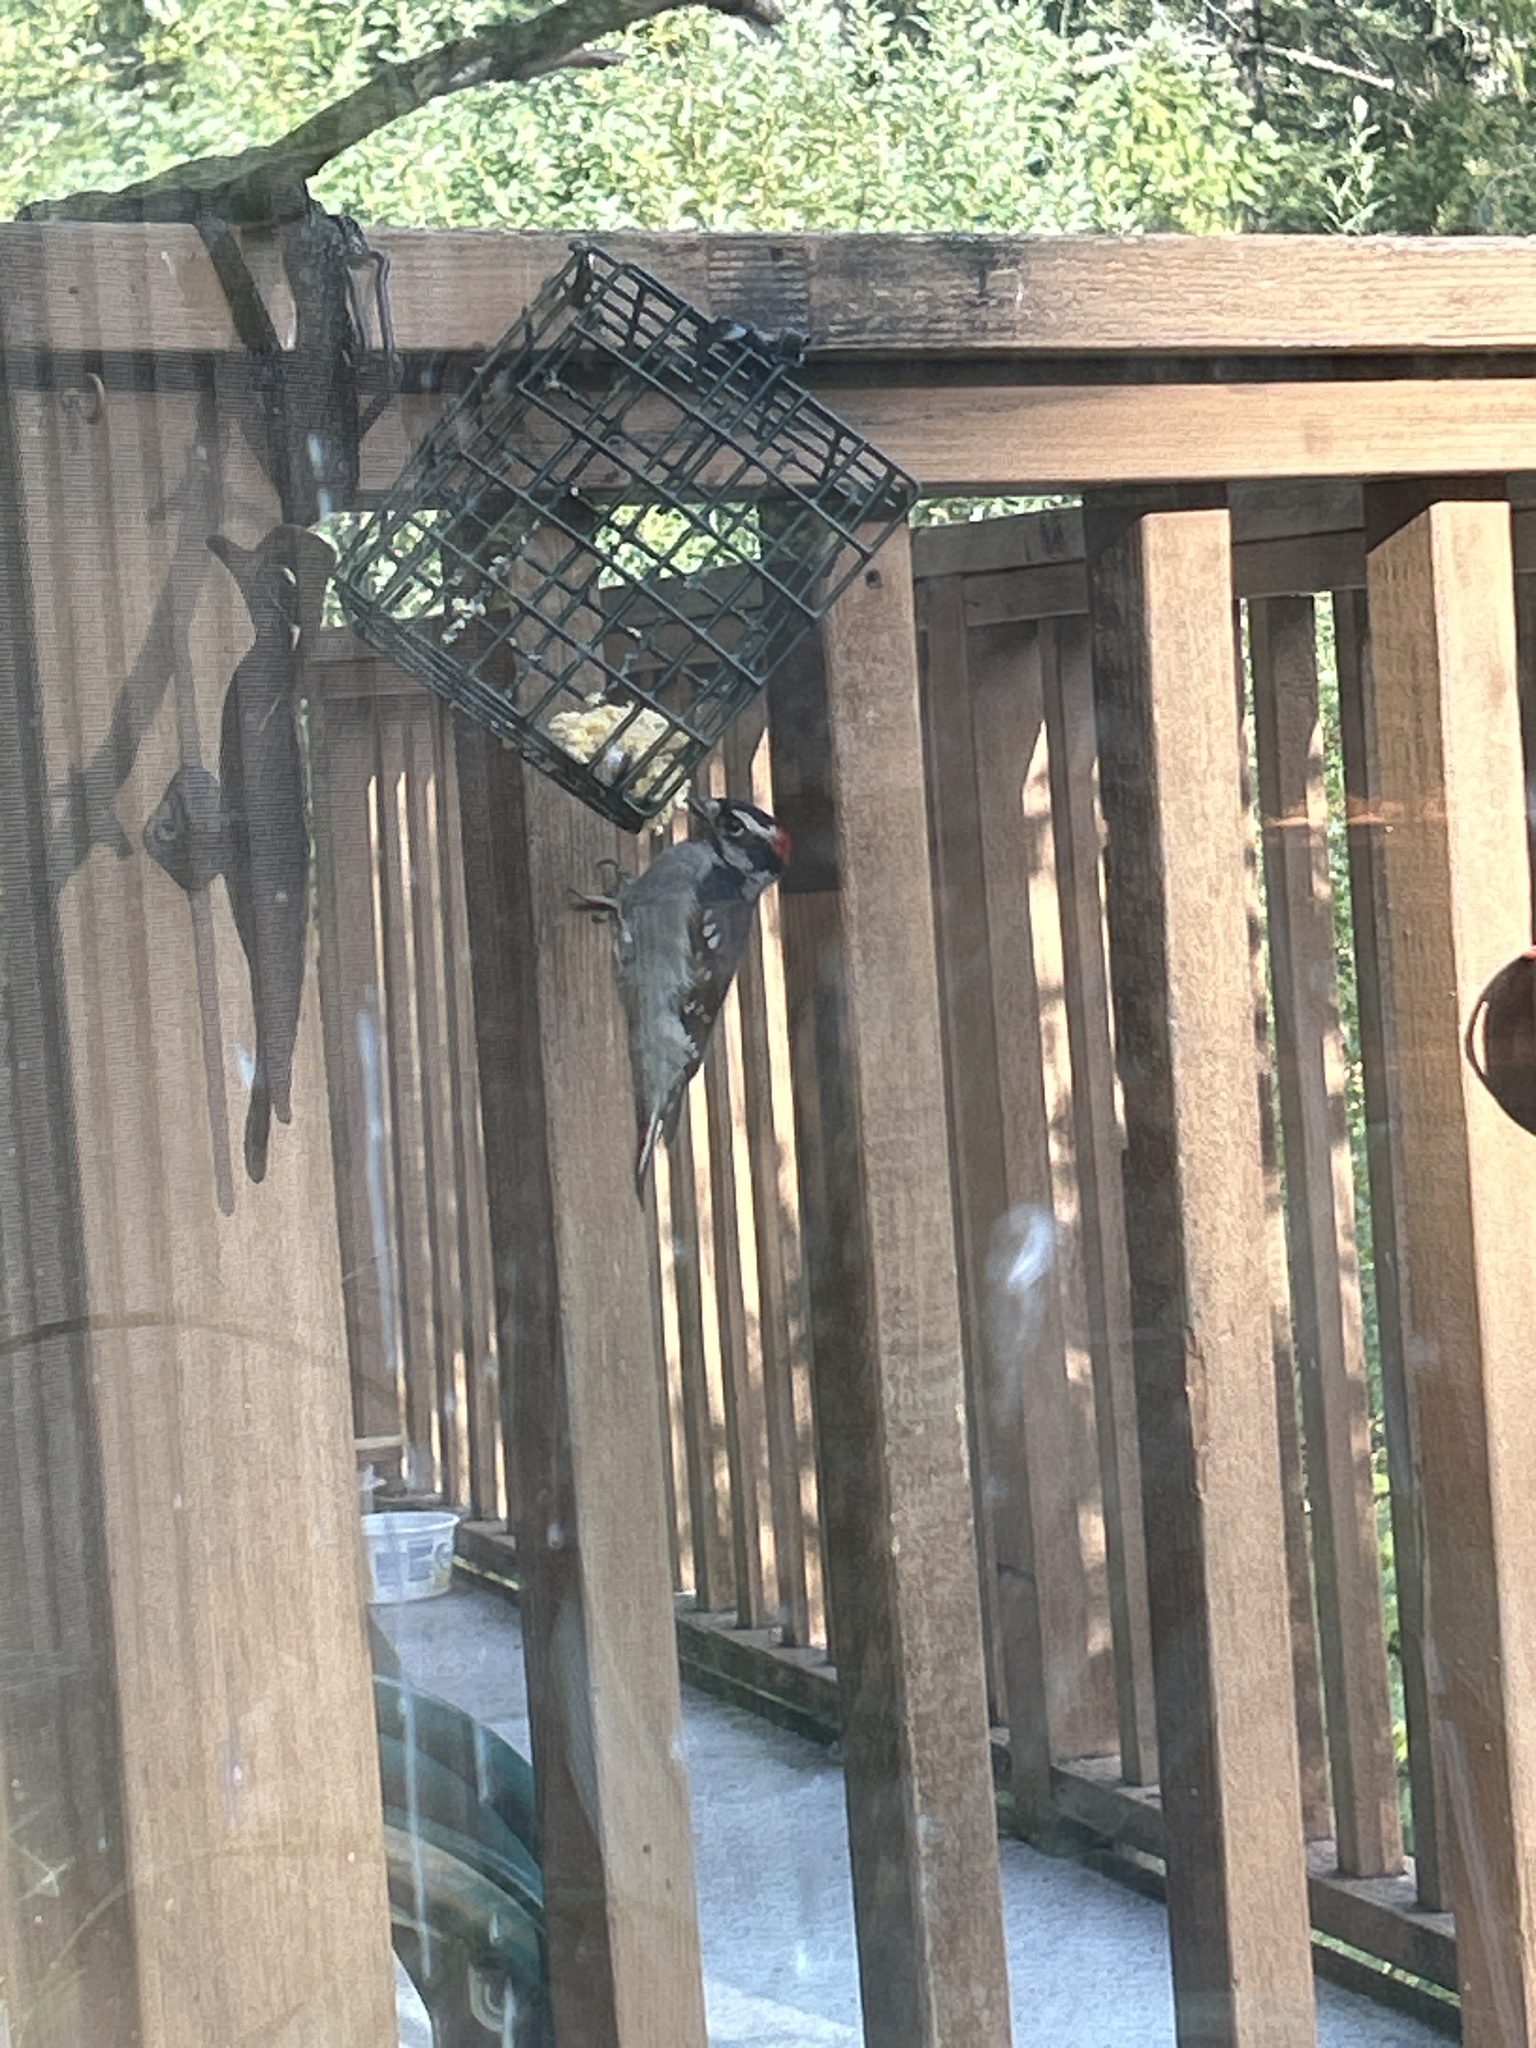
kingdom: Animalia
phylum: Chordata
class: Aves
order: Piciformes
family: Picidae
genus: Dryobates
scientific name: Dryobates pubescens
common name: Downy woodpecker
